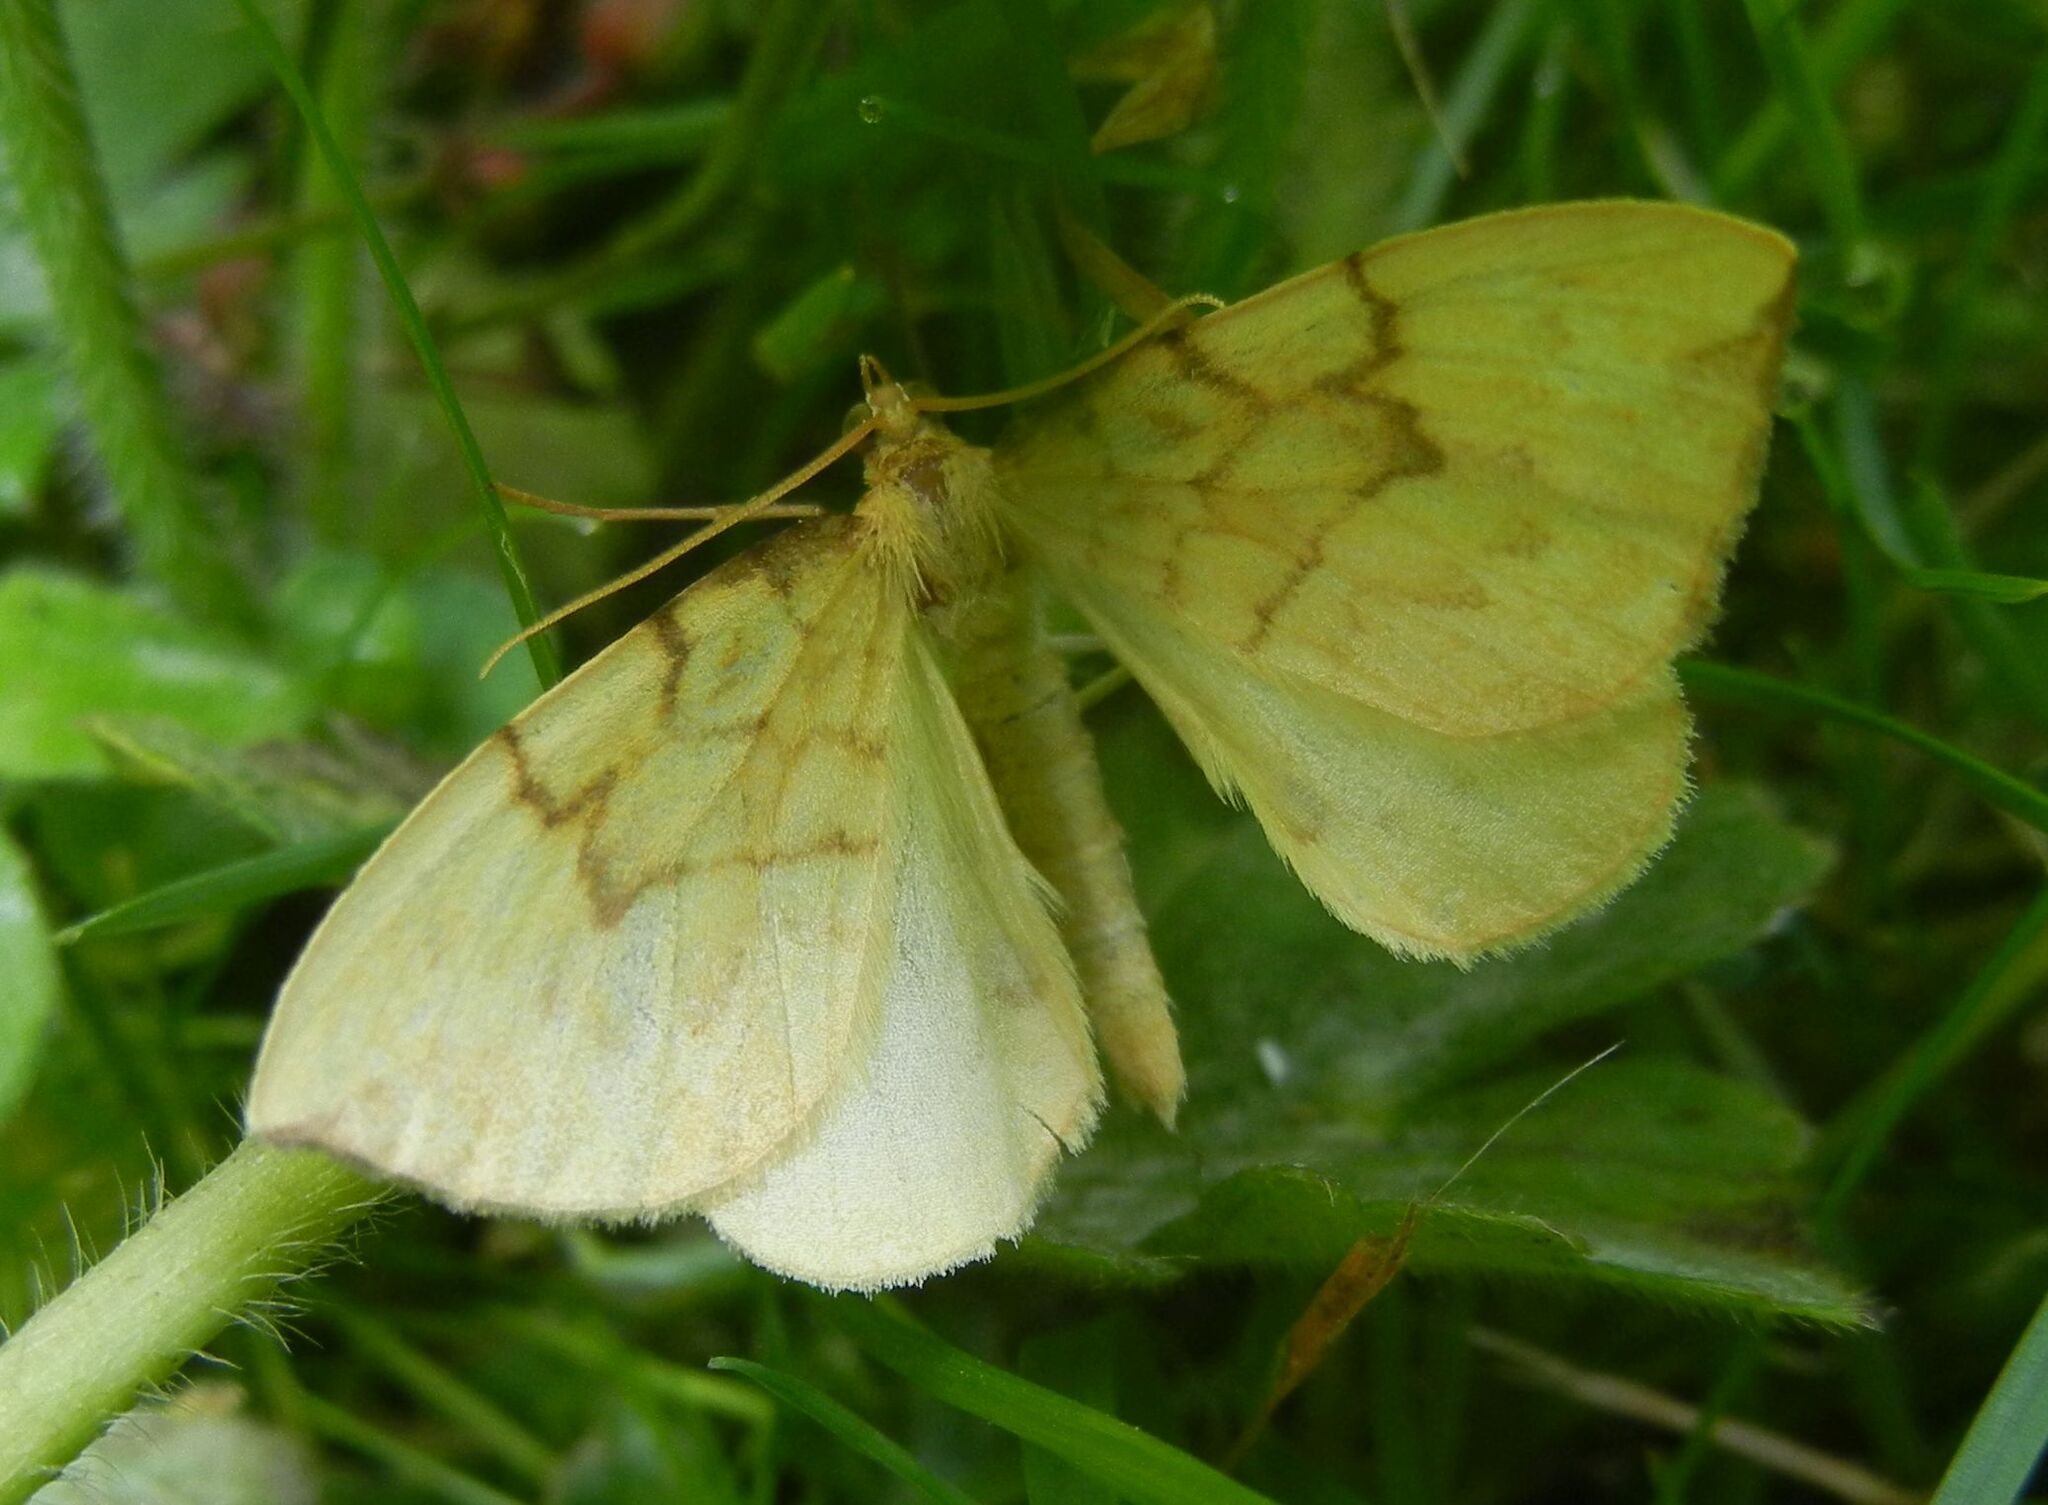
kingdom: Animalia
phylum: Arthropoda
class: Insecta
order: Lepidoptera
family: Geometridae
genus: Eulithis
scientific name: Eulithis pyraliata
